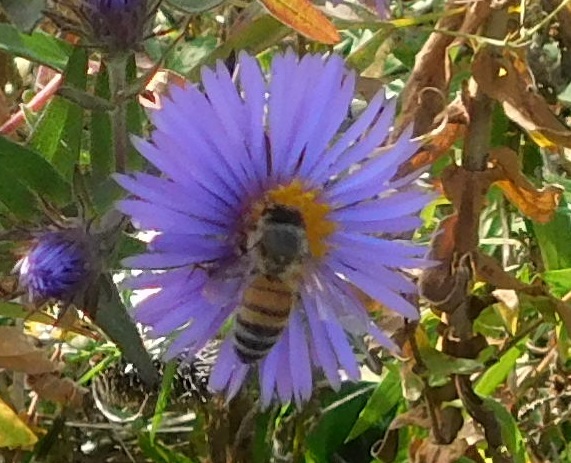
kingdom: Animalia
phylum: Arthropoda
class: Insecta
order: Hymenoptera
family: Apidae
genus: Apis
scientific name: Apis mellifera
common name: Honey bee
